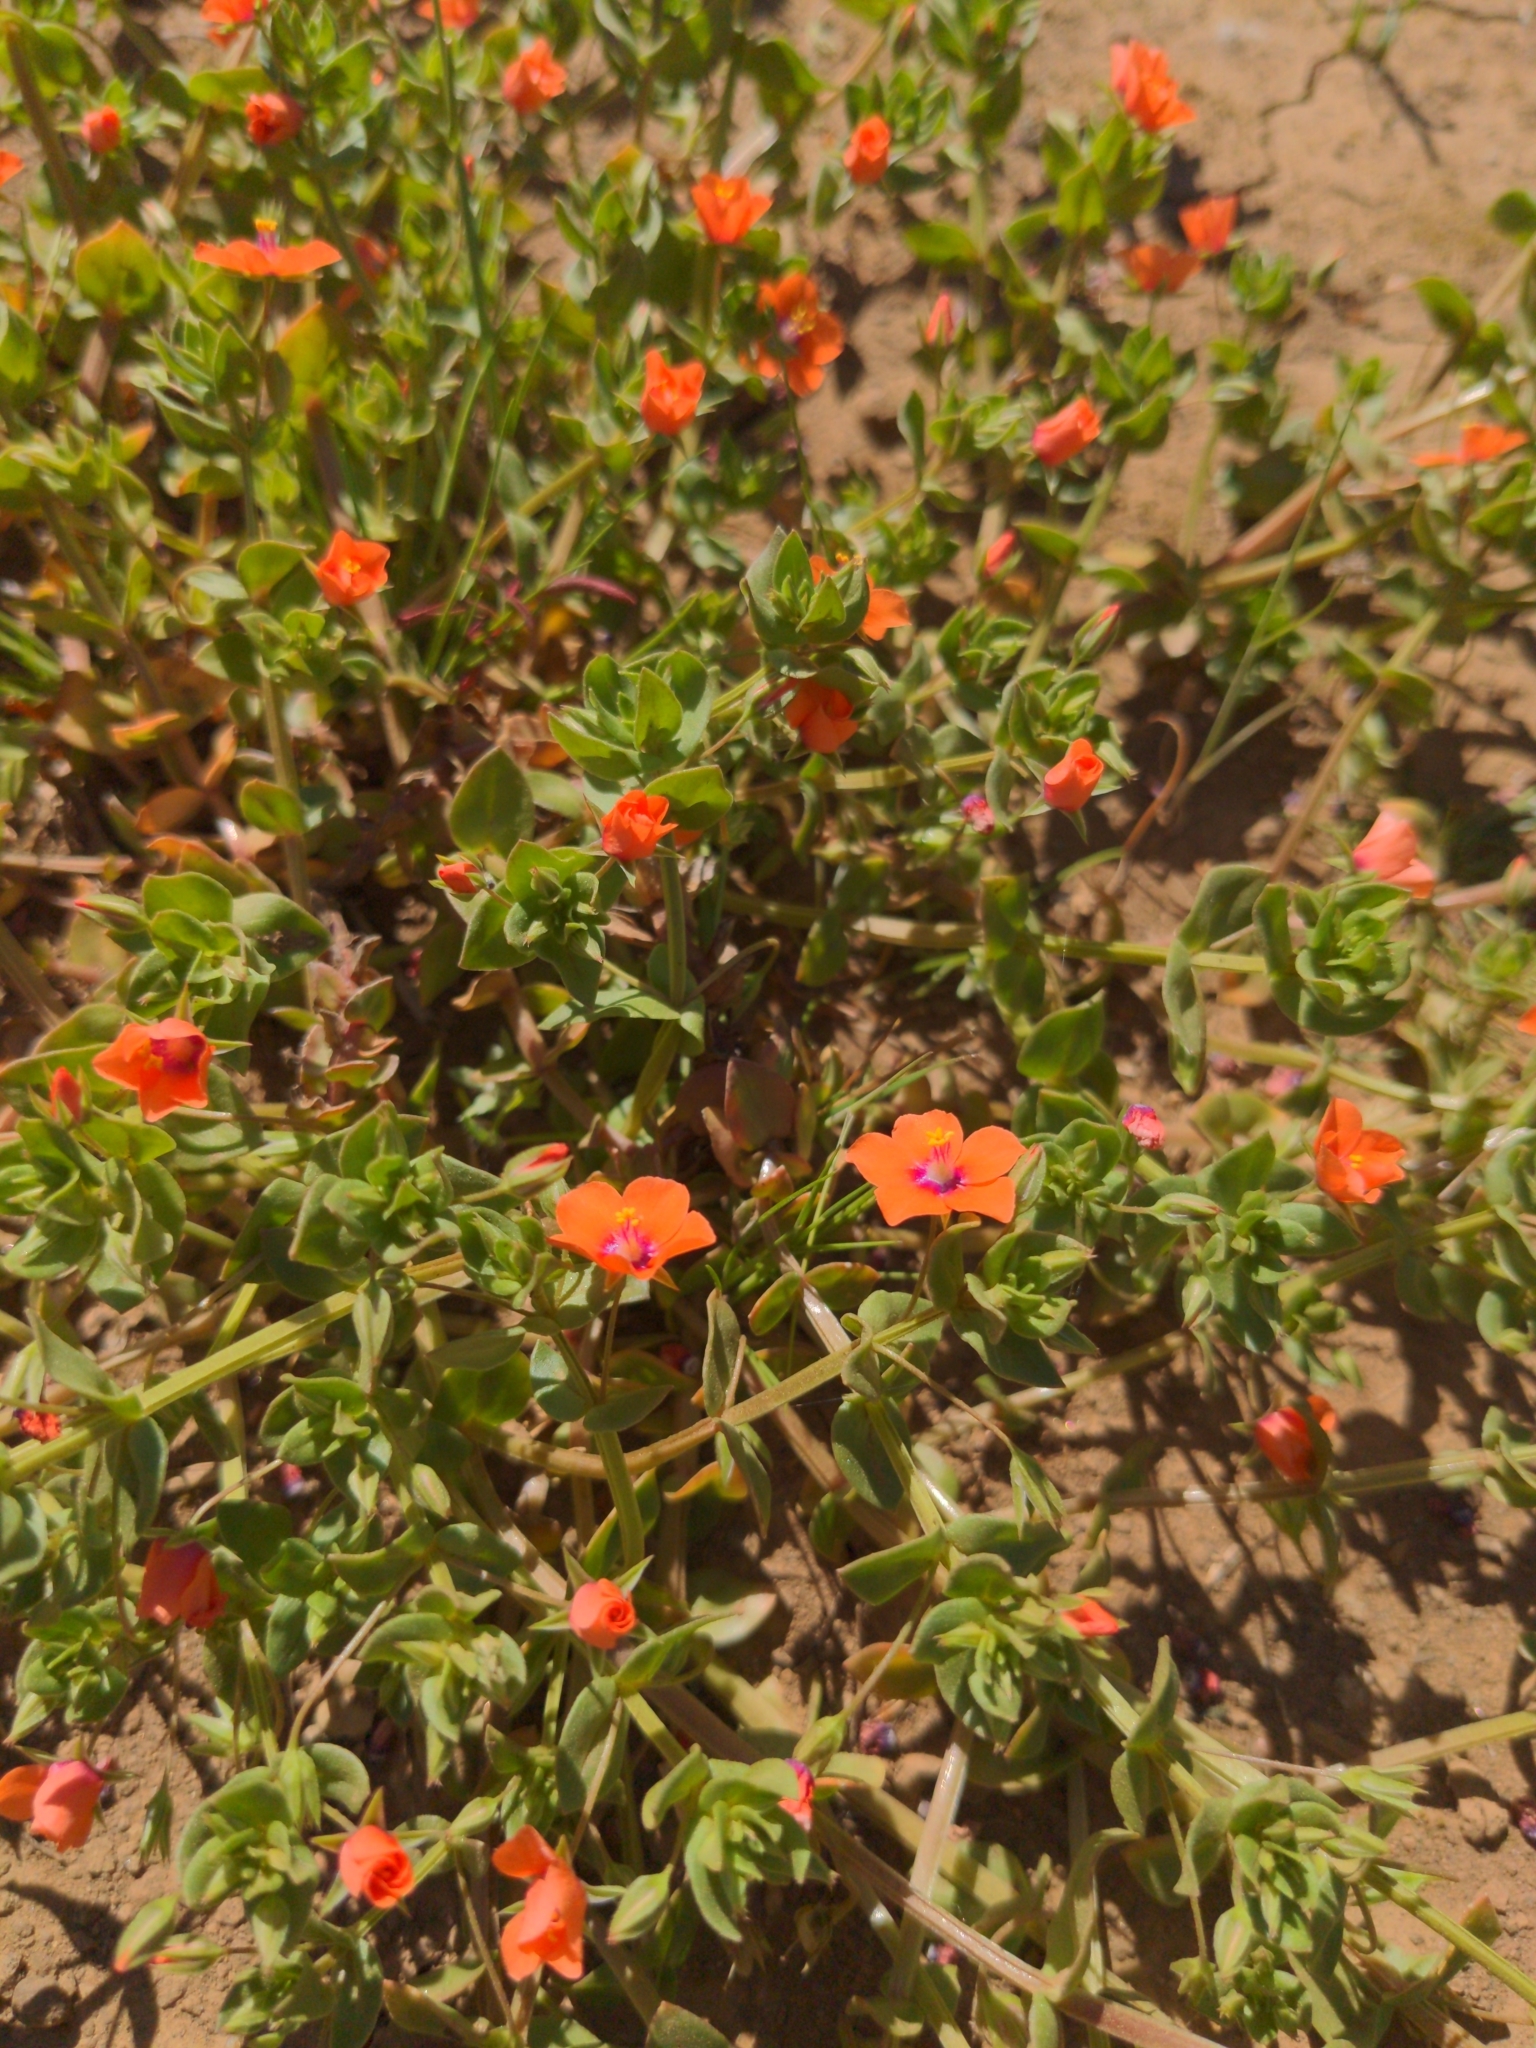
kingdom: Plantae
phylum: Tracheophyta
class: Magnoliopsida
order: Ericales
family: Primulaceae
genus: Lysimachia
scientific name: Lysimachia arvensis
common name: Scarlet pimpernel
